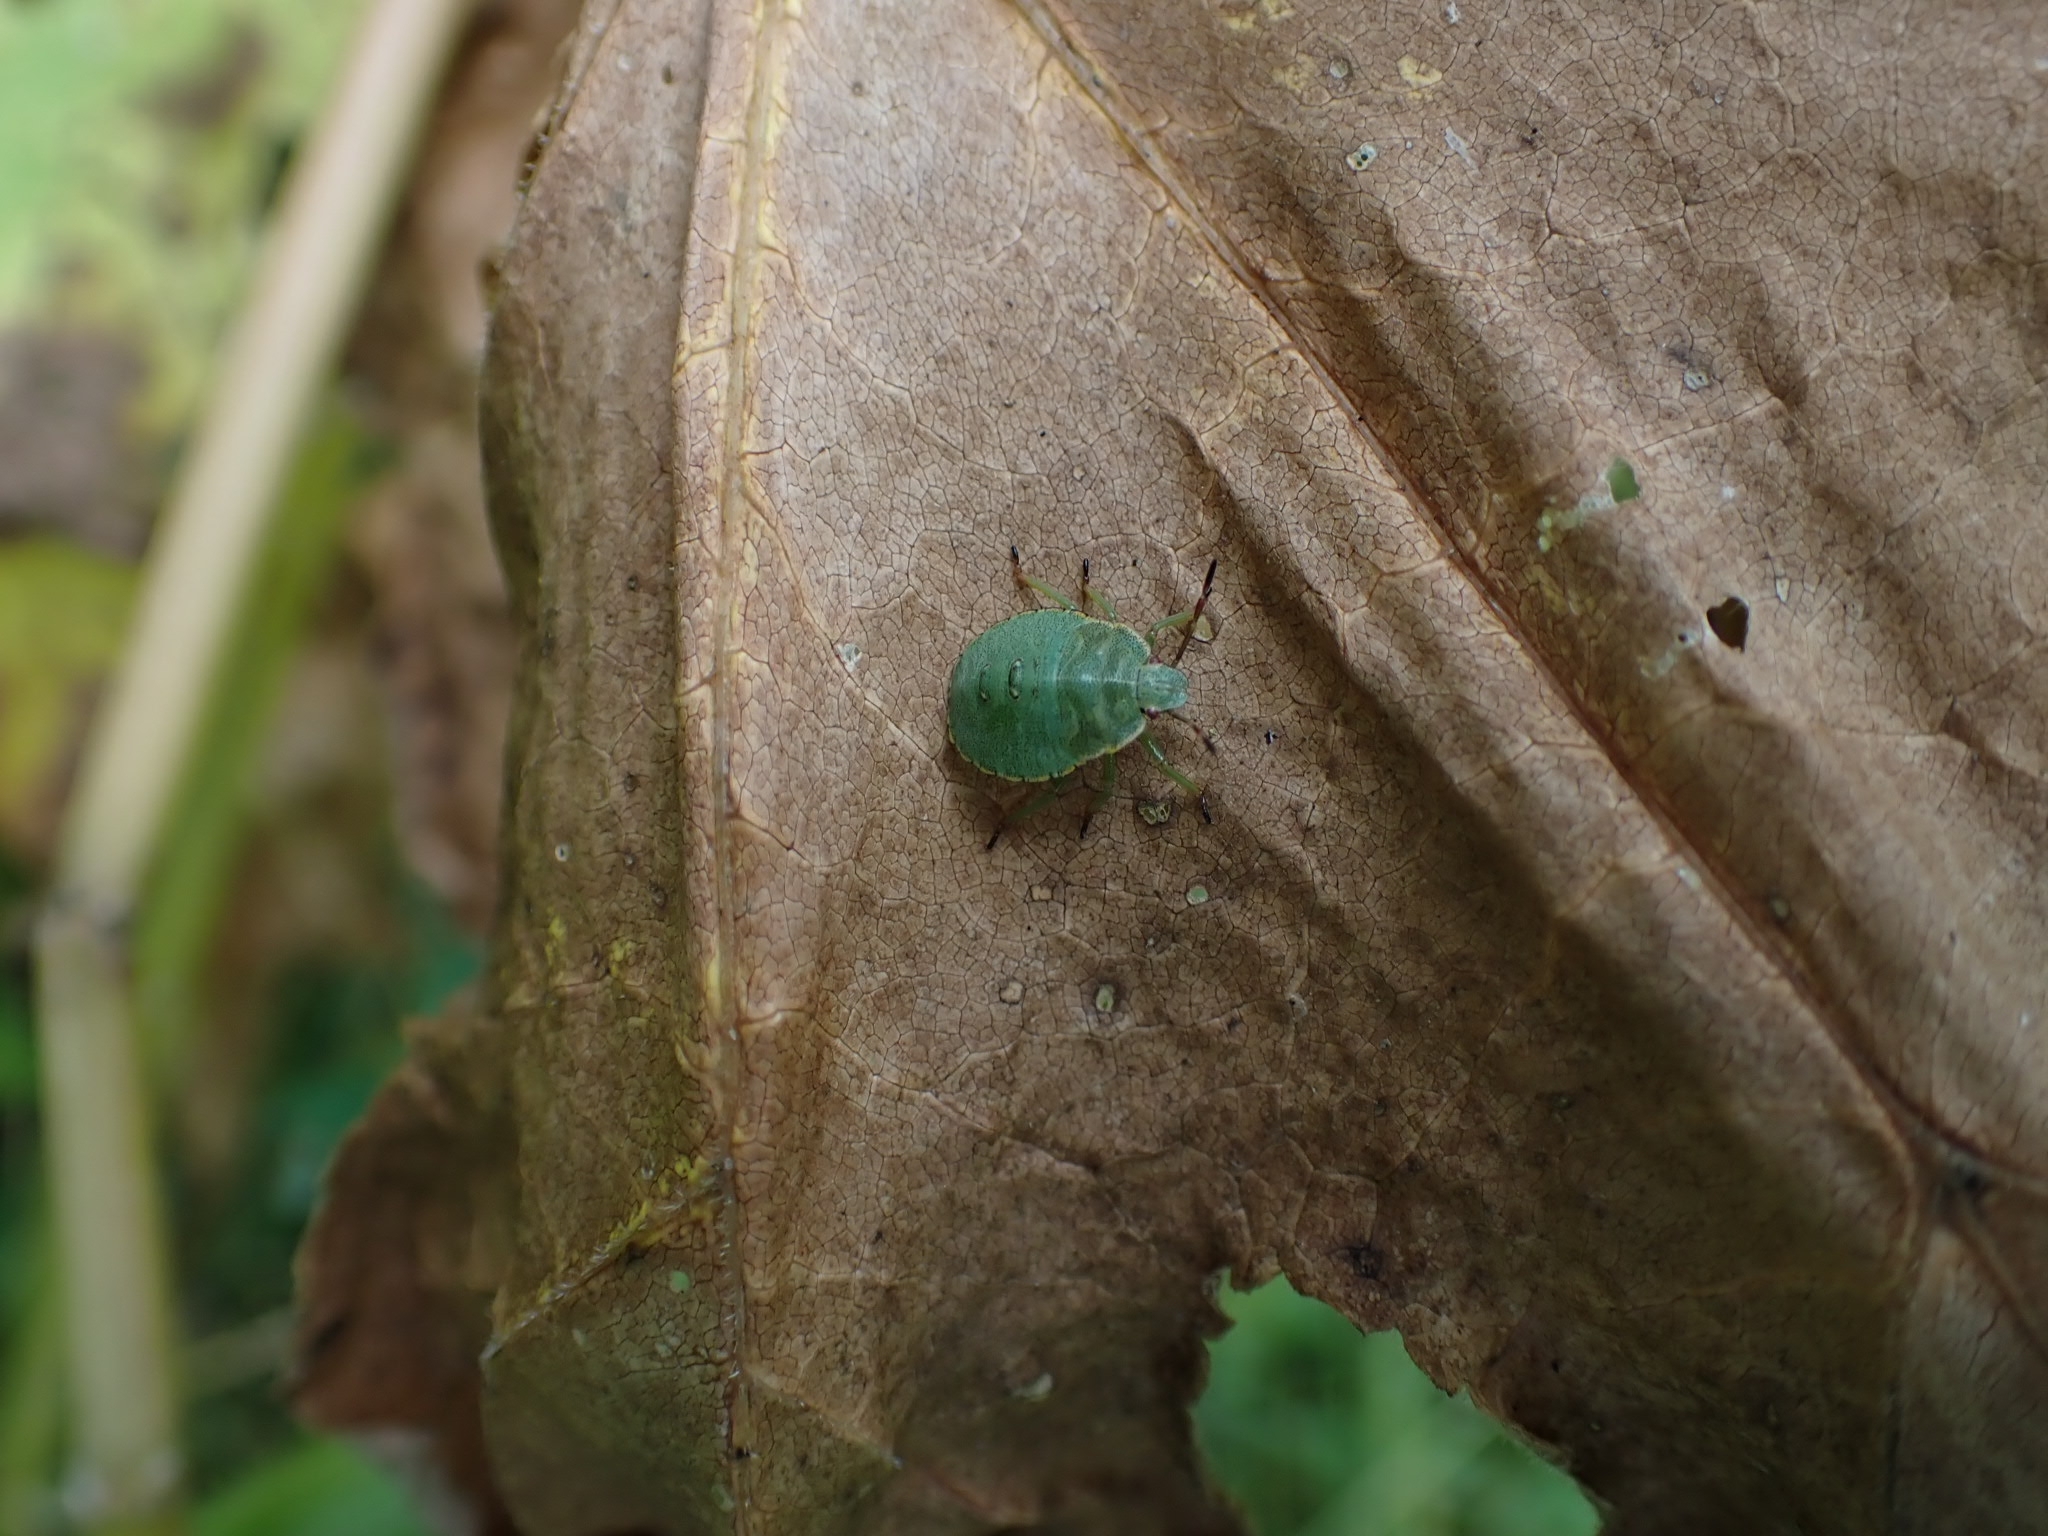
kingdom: Animalia
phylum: Arthropoda
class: Insecta
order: Hemiptera
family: Pentatomidae
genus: Palomena
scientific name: Palomena prasina
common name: Green shieldbug
